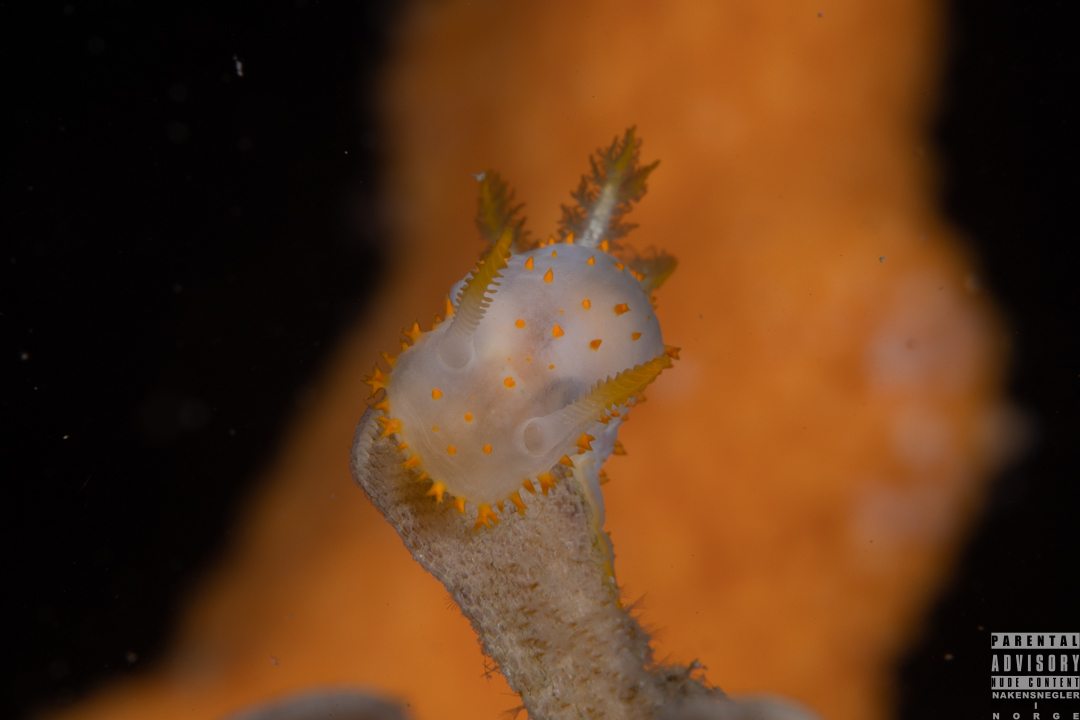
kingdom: Animalia
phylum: Mollusca
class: Gastropoda
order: Nudibranchia
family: Polyceridae
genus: Crimora
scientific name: Crimora papillata
